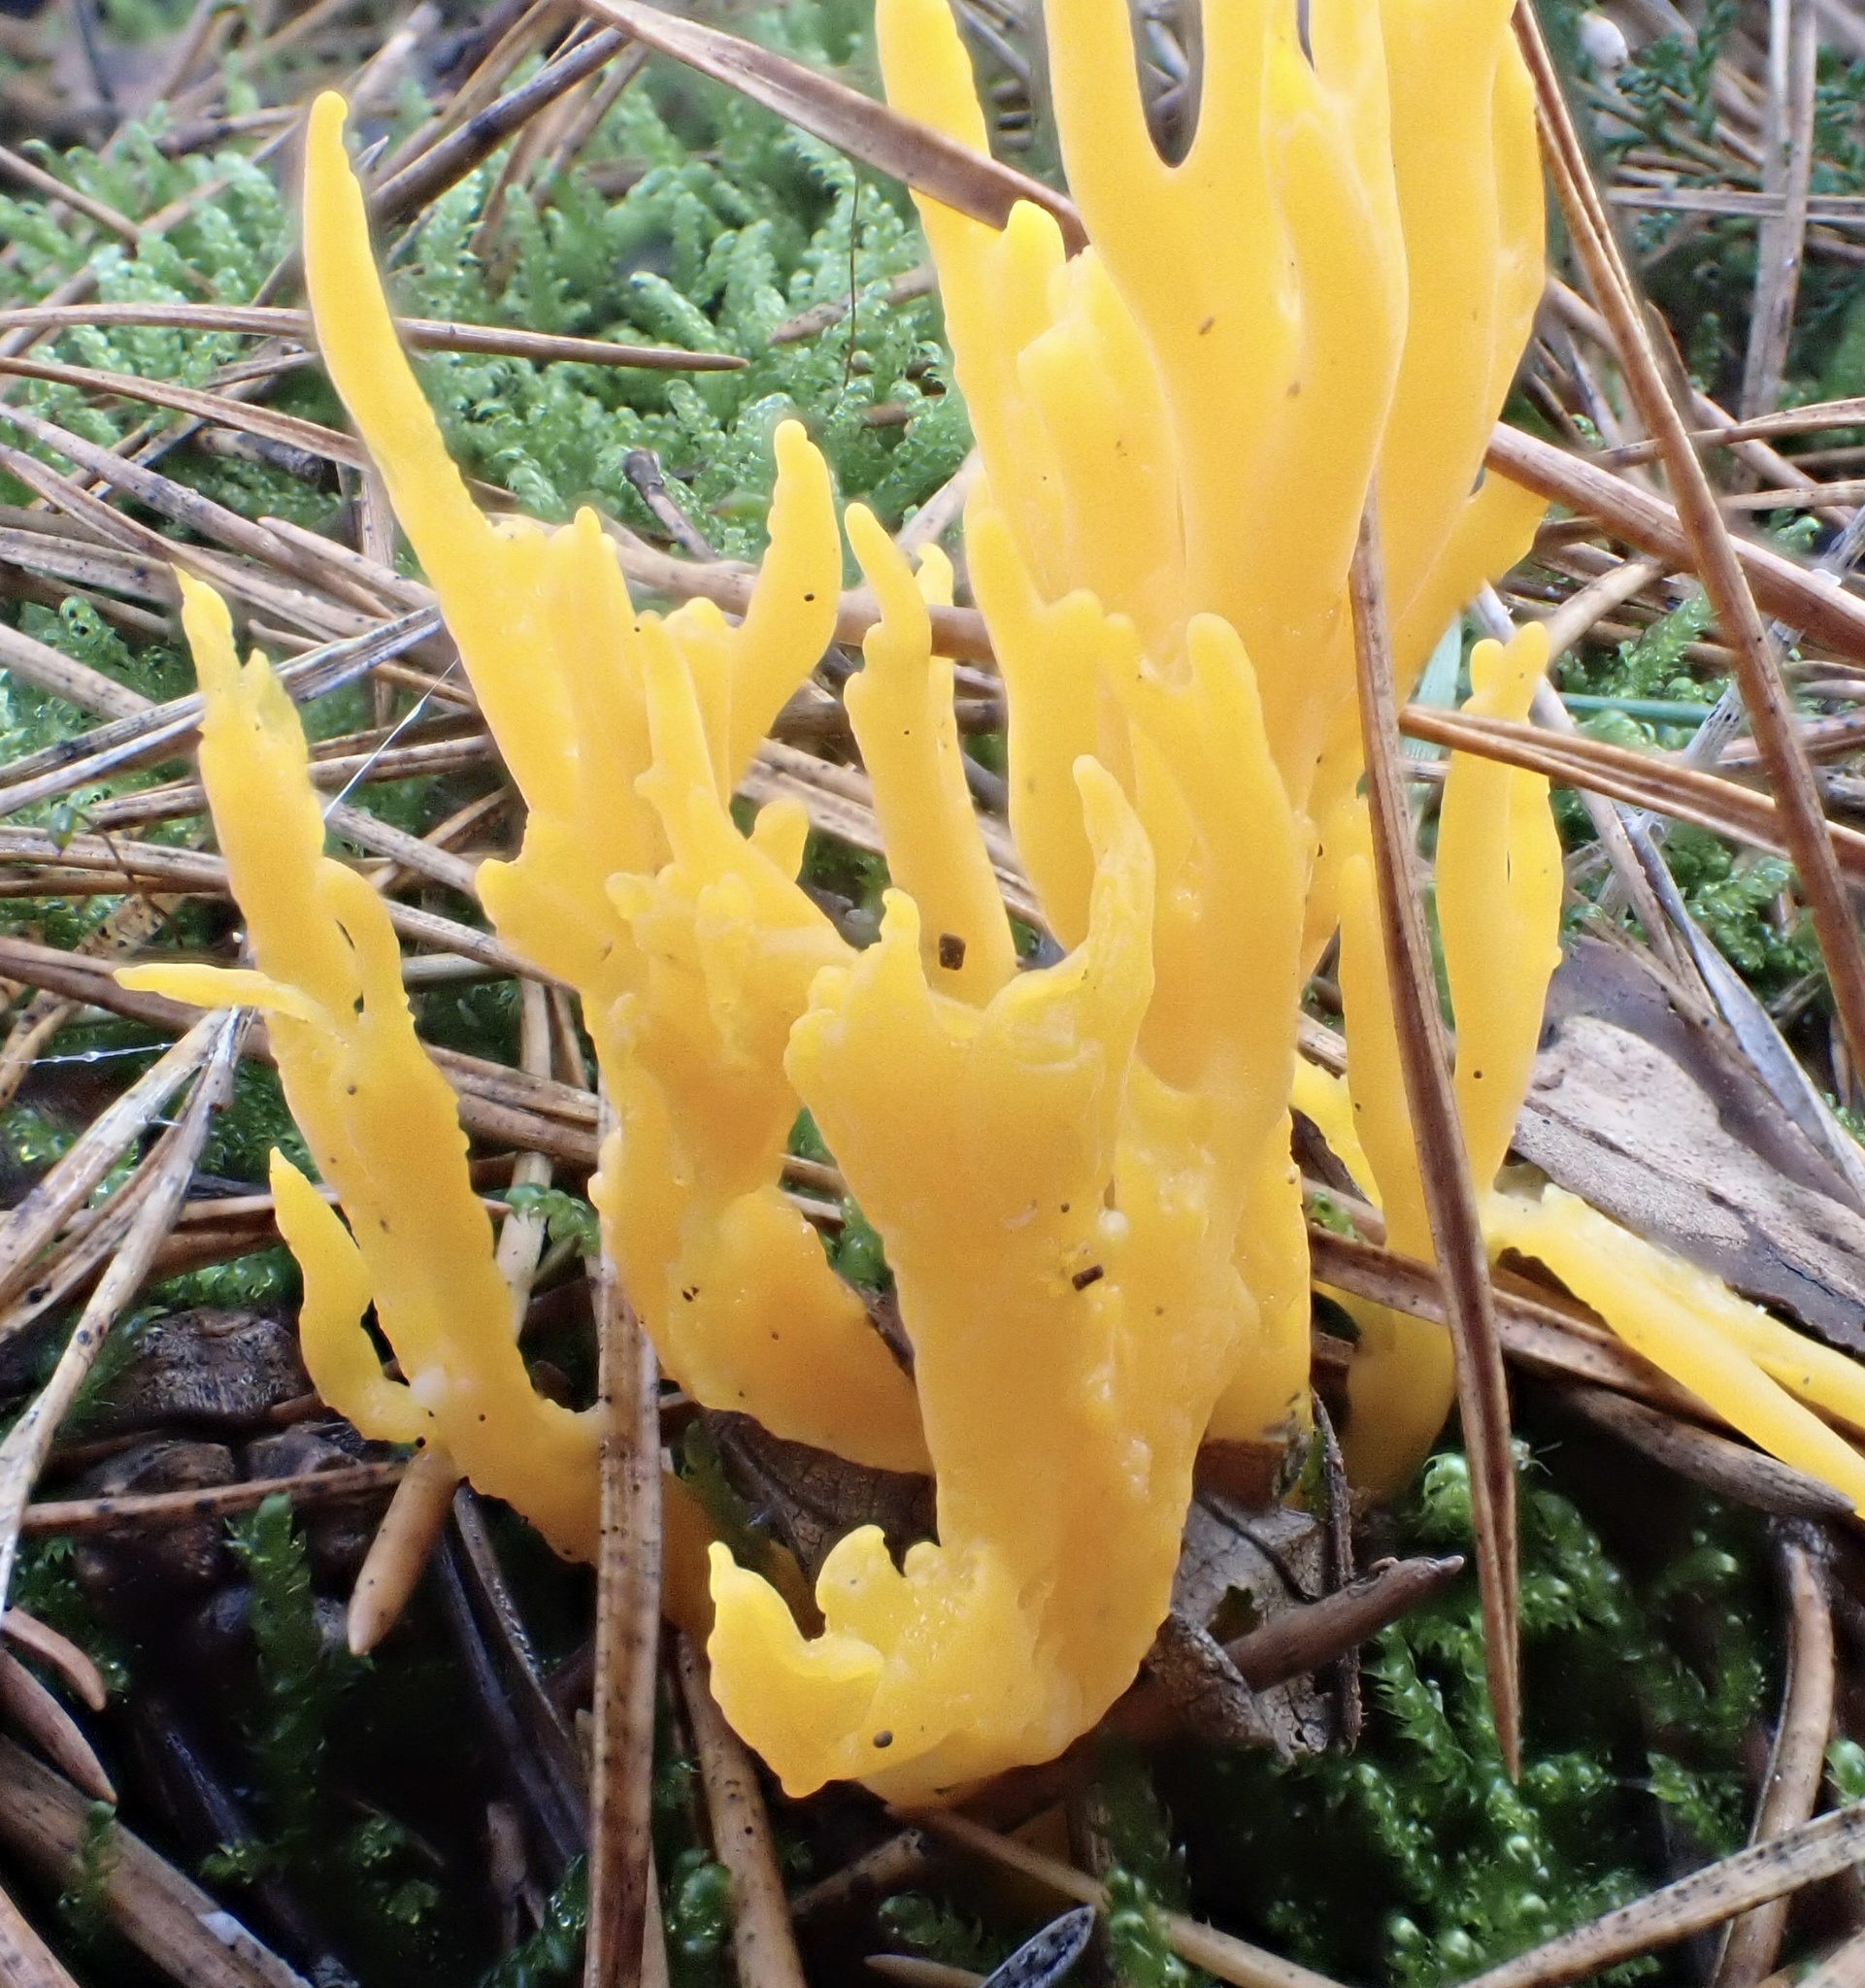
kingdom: Fungi
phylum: Basidiomycota
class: Dacrymycetes
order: Dacrymycetales
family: Dacrymycetaceae
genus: Calocera
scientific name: Calocera viscosa
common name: Yellow stagshorn
